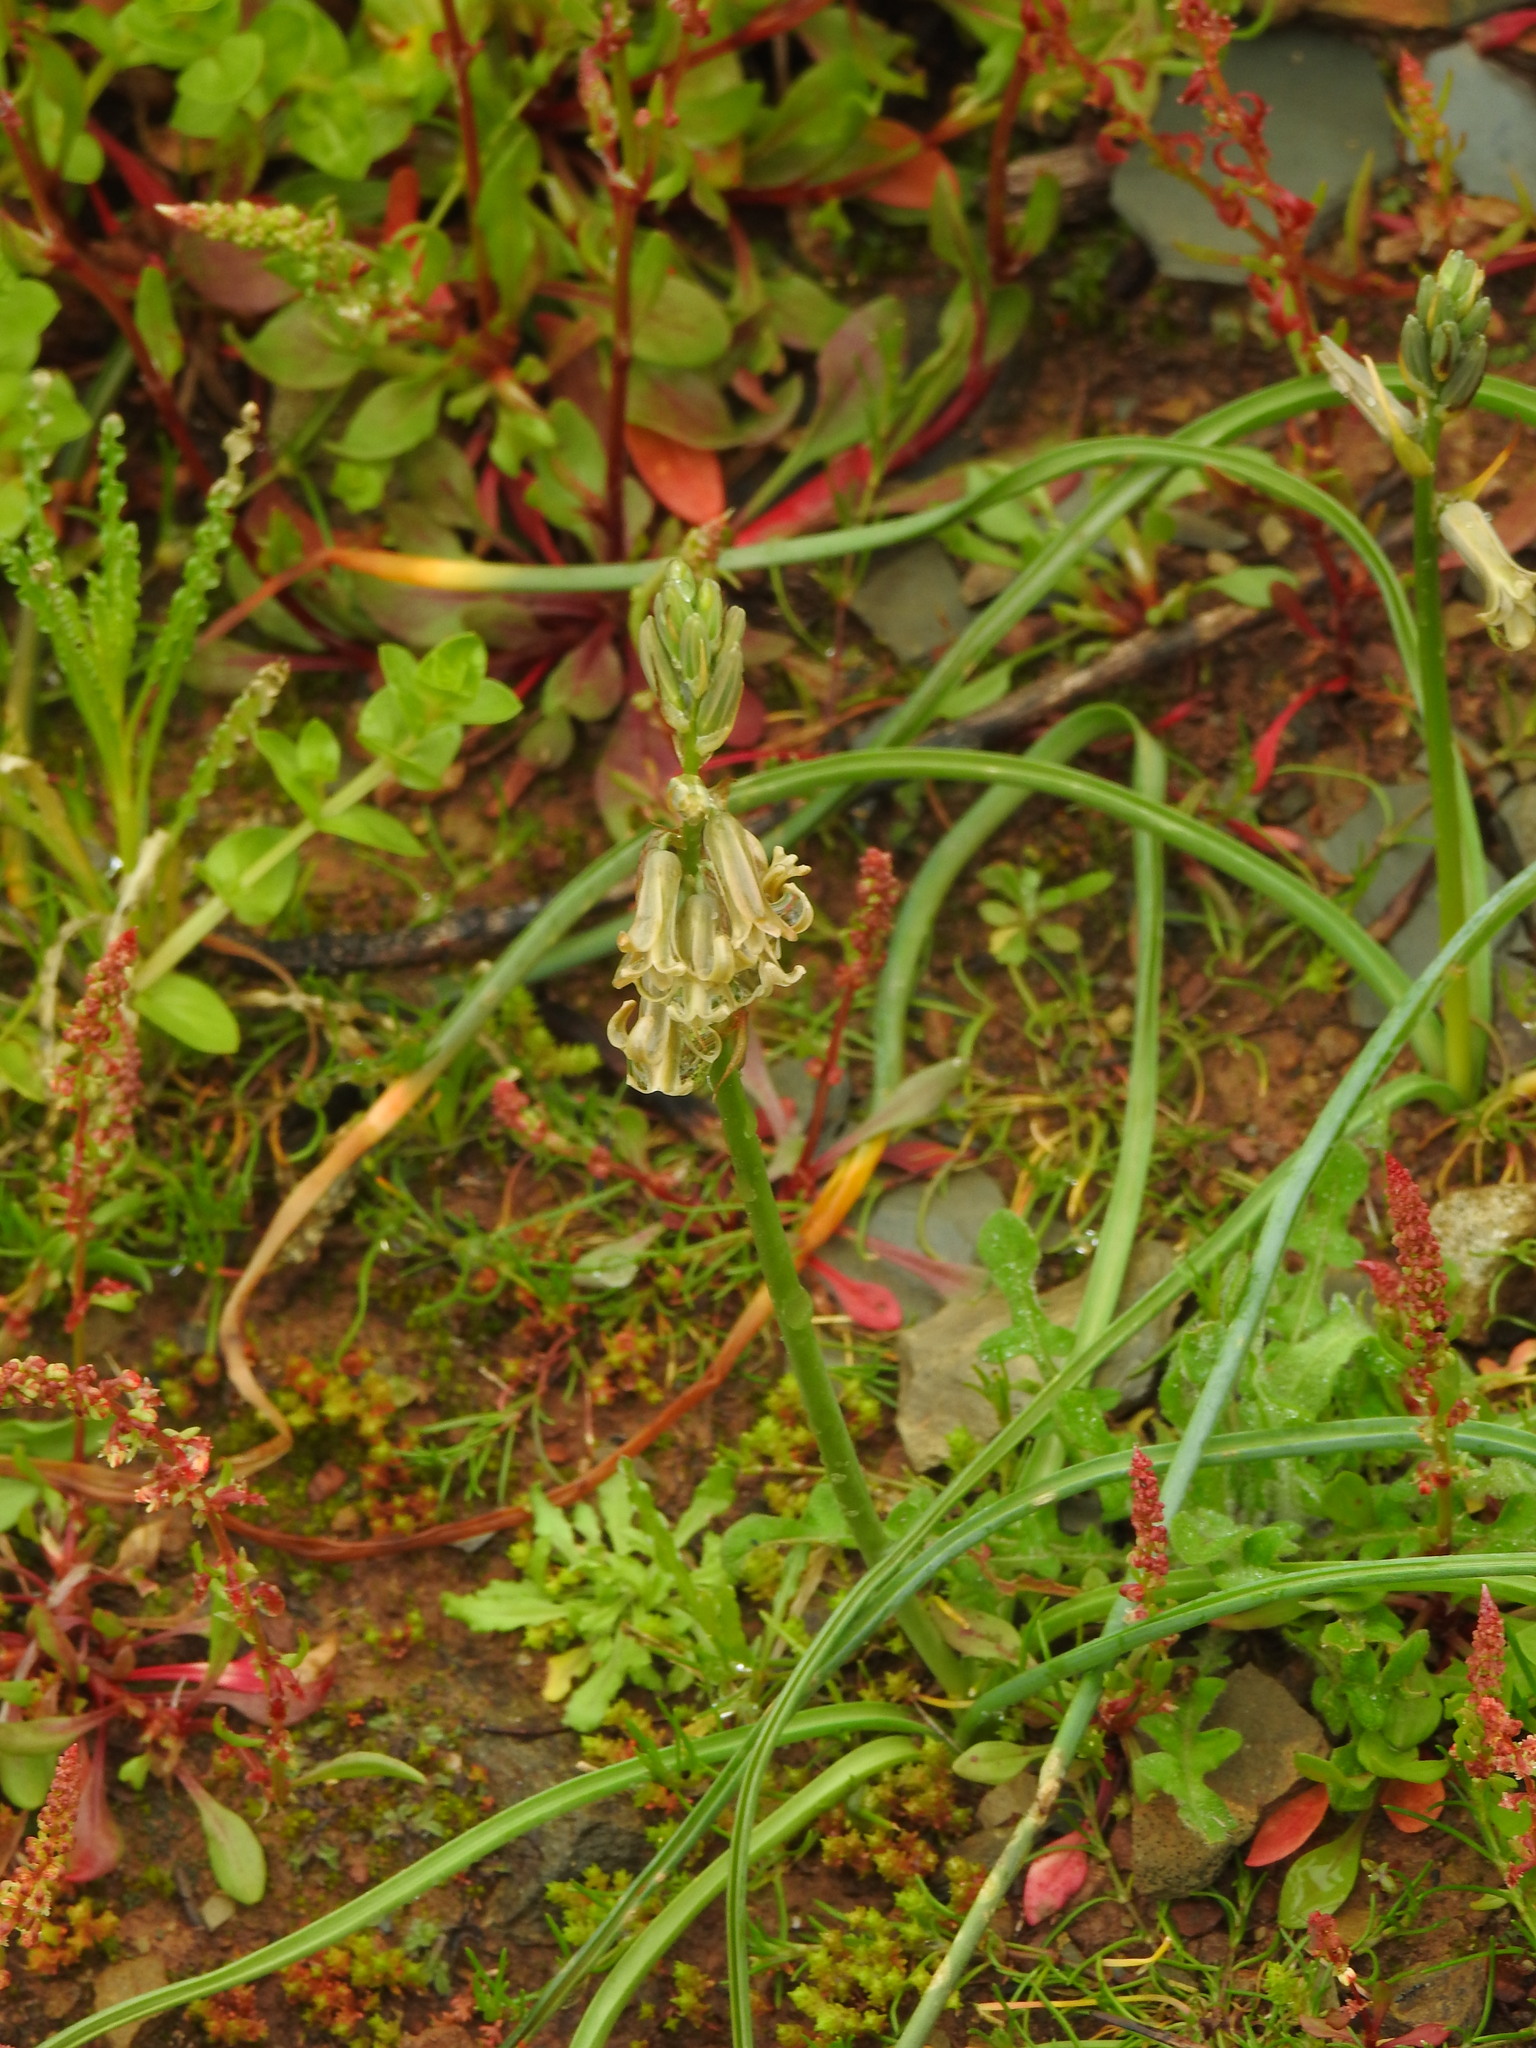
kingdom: Plantae
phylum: Tracheophyta
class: Liliopsida
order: Asparagales
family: Asparagaceae
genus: Dipcadi
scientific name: Dipcadi serotinum
